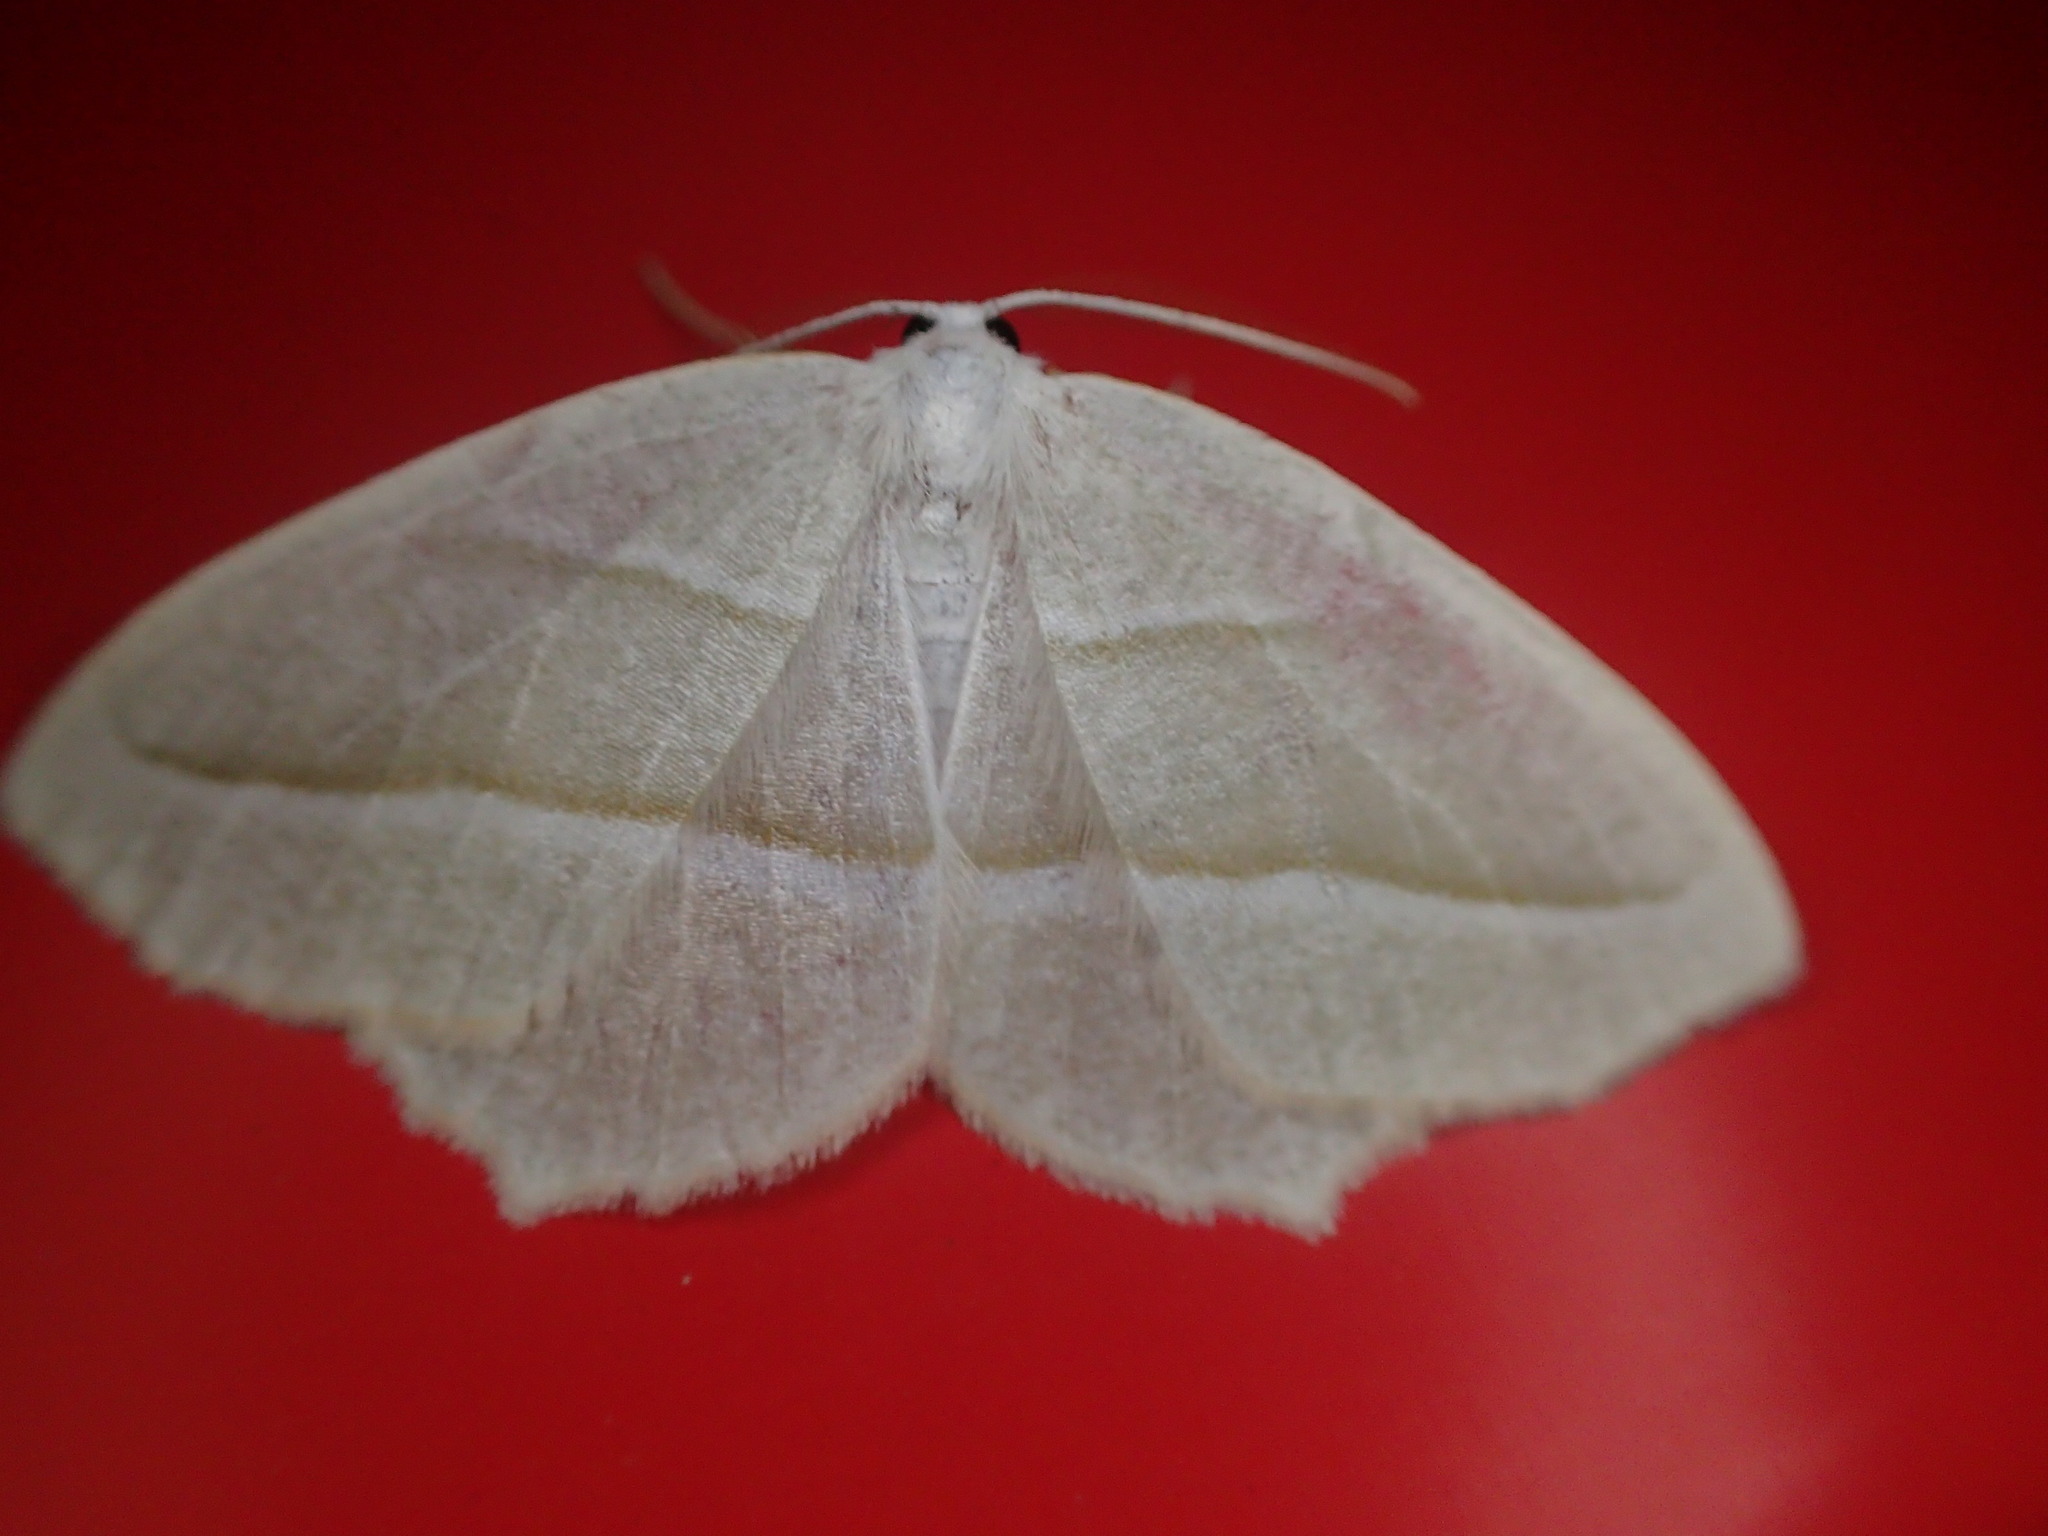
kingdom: Animalia
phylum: Arthropoda
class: Insecta
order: Lepidoptera
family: Geometridae
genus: Campaea
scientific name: Campaea perlata
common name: Fringed looper
